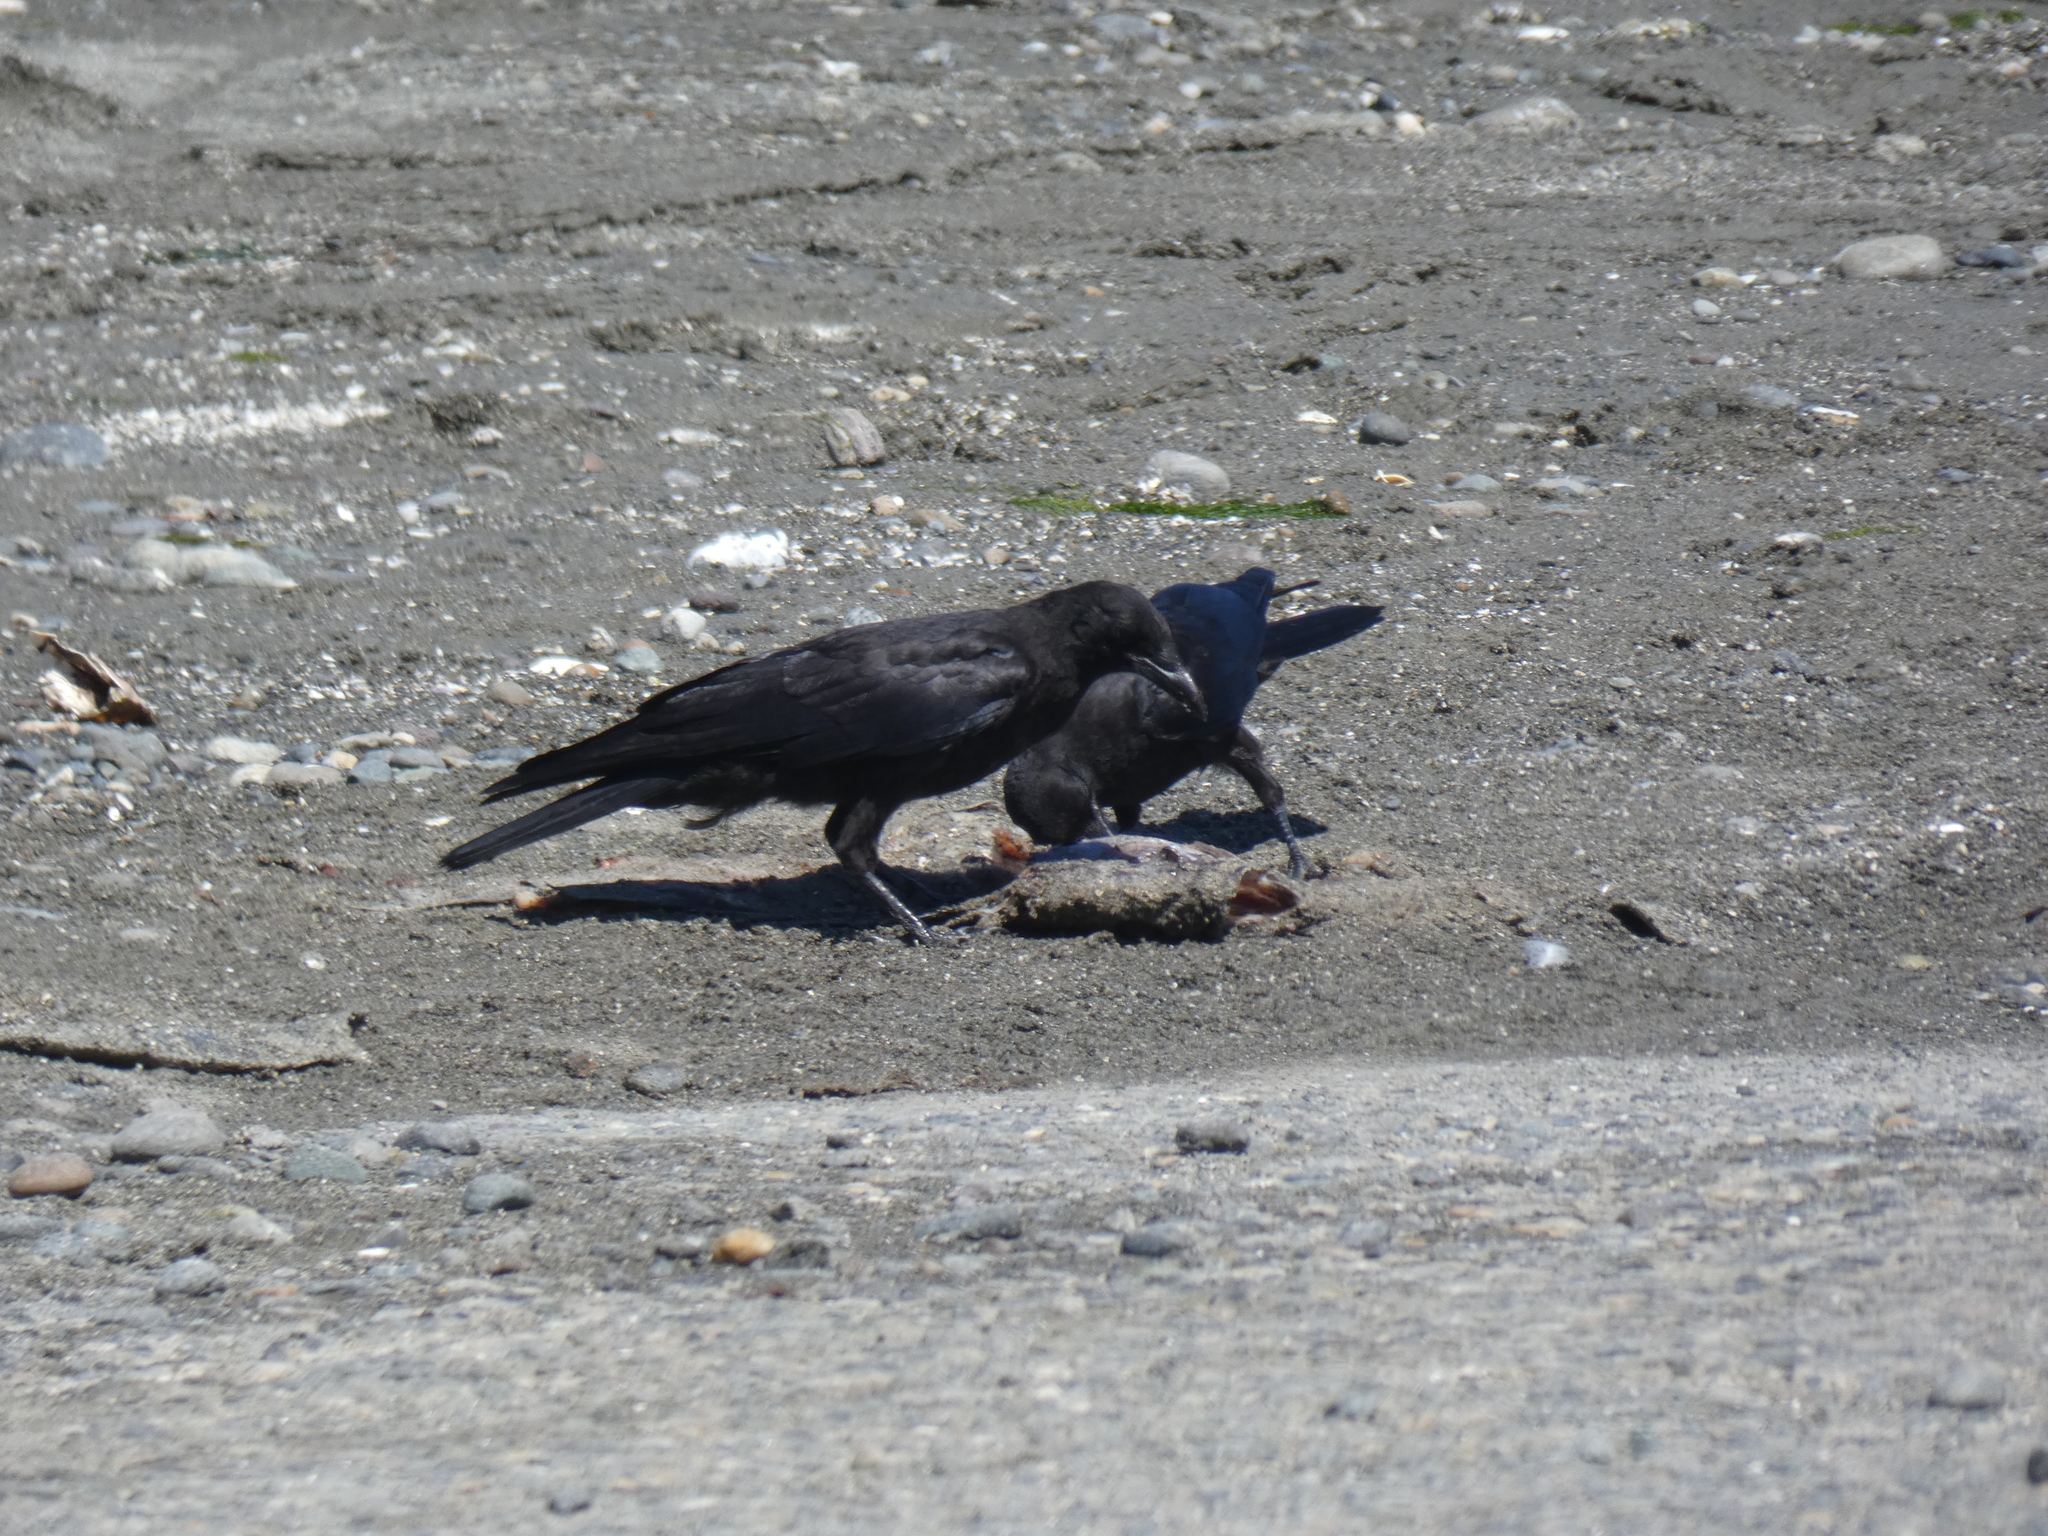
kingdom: Animalia
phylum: Chordata
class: Aves
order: Passeriformes
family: Corvidae
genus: Corvus
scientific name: Corvus brachyrhynchos
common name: American crow
